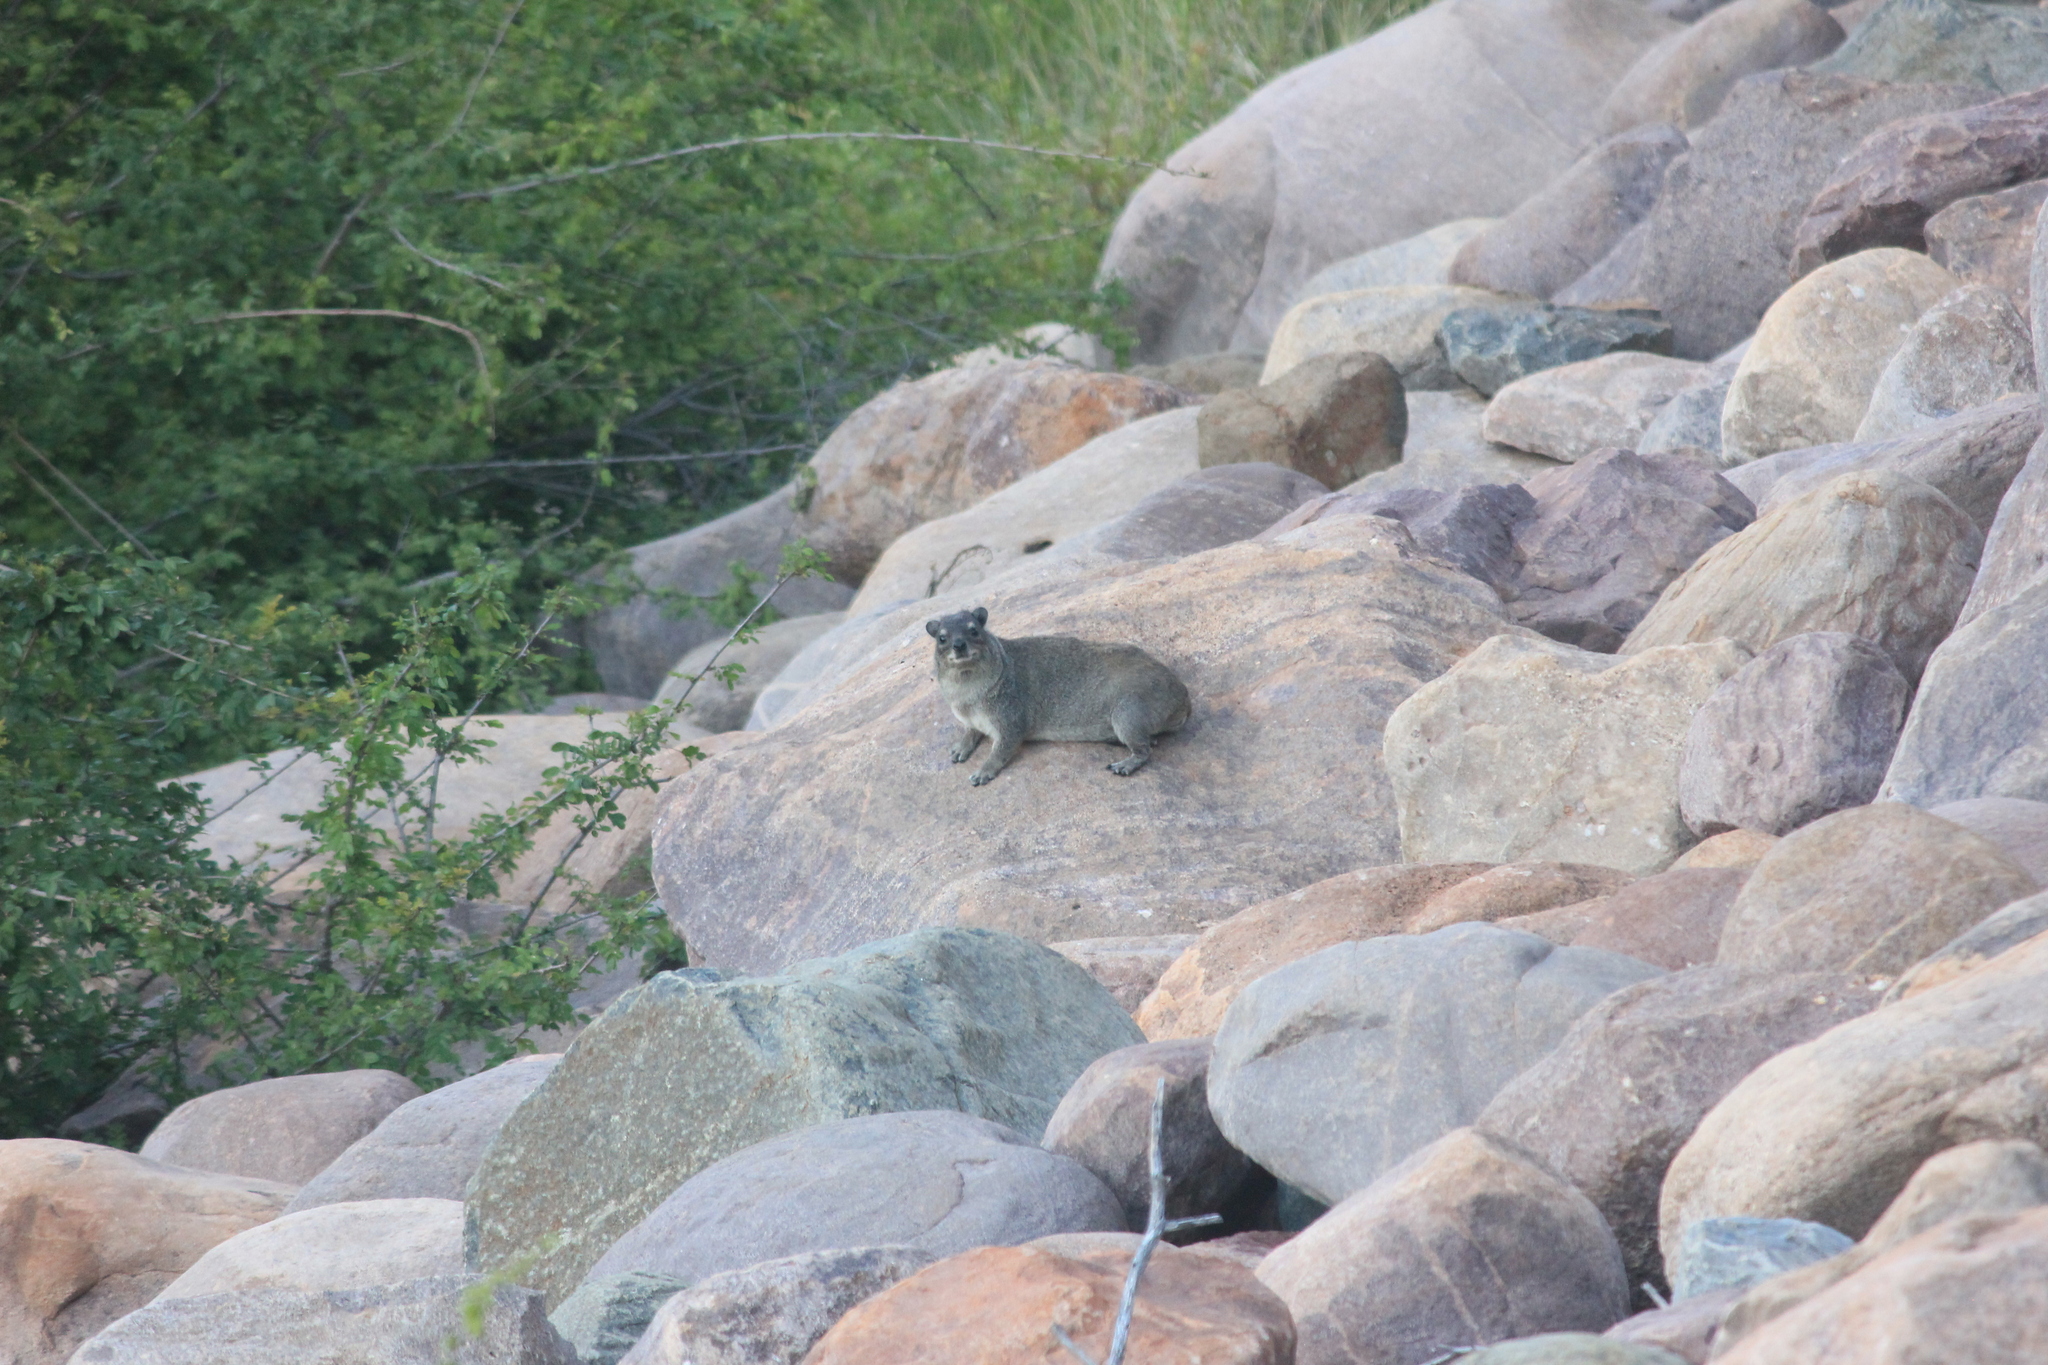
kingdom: Animalia
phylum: Chordata
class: Mammalia
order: Hyracoidea
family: Procaviidae
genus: Heterohyrax
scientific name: Heterohyrax brucei
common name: Bush hyrax
